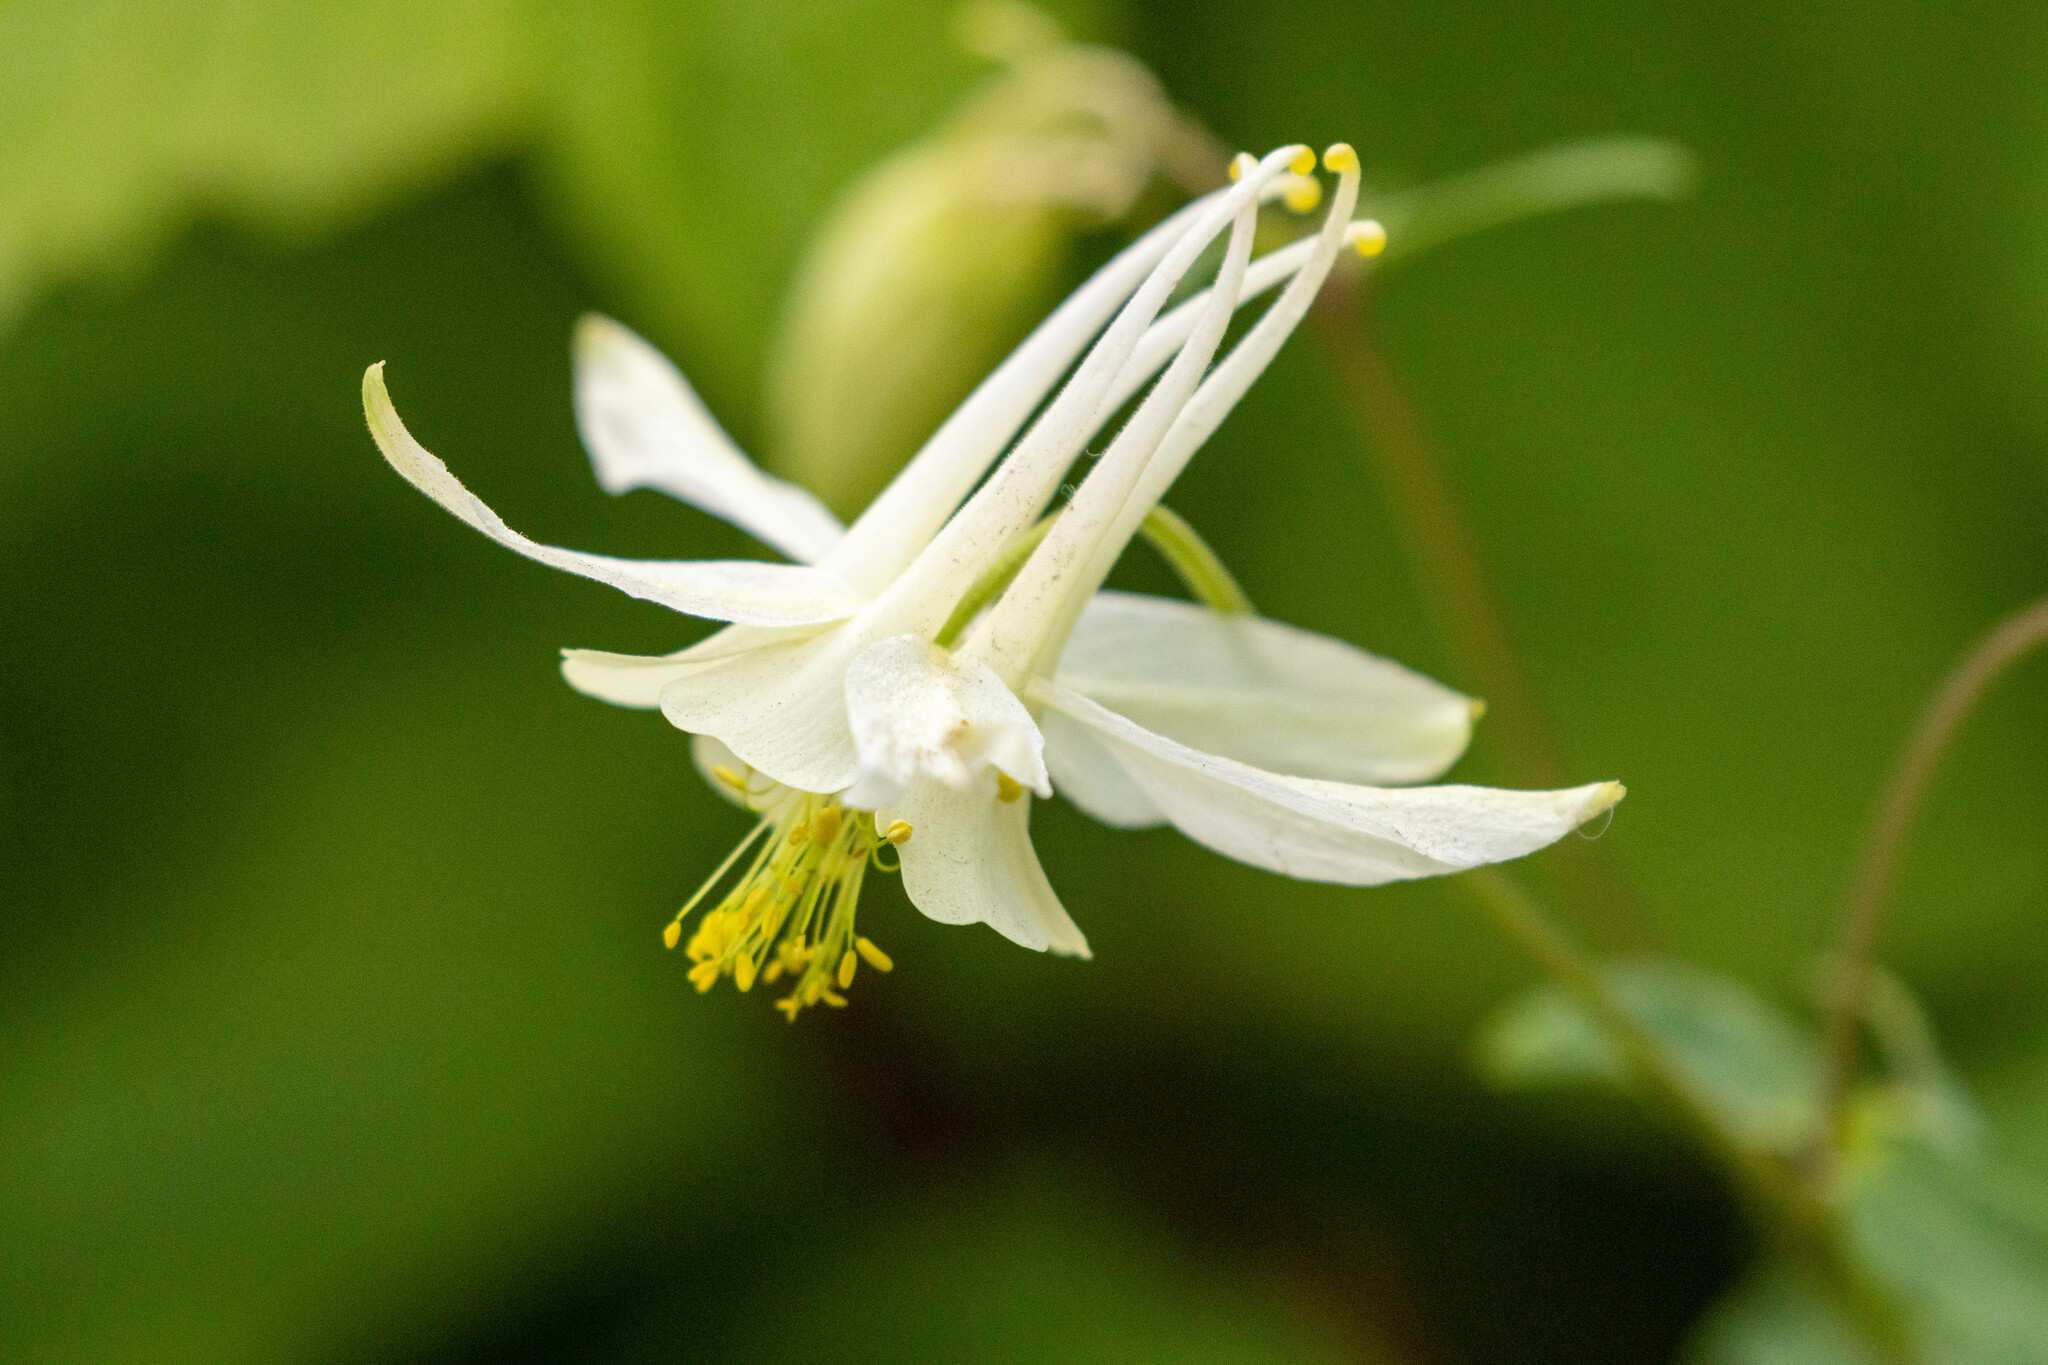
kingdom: Plantae
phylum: Tracheophyta
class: Magnoliopsida
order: Ranunculales
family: Ranunculaceae
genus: Aquilegia
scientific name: Aquilegia coerulea
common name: Rocky mountain columbine
